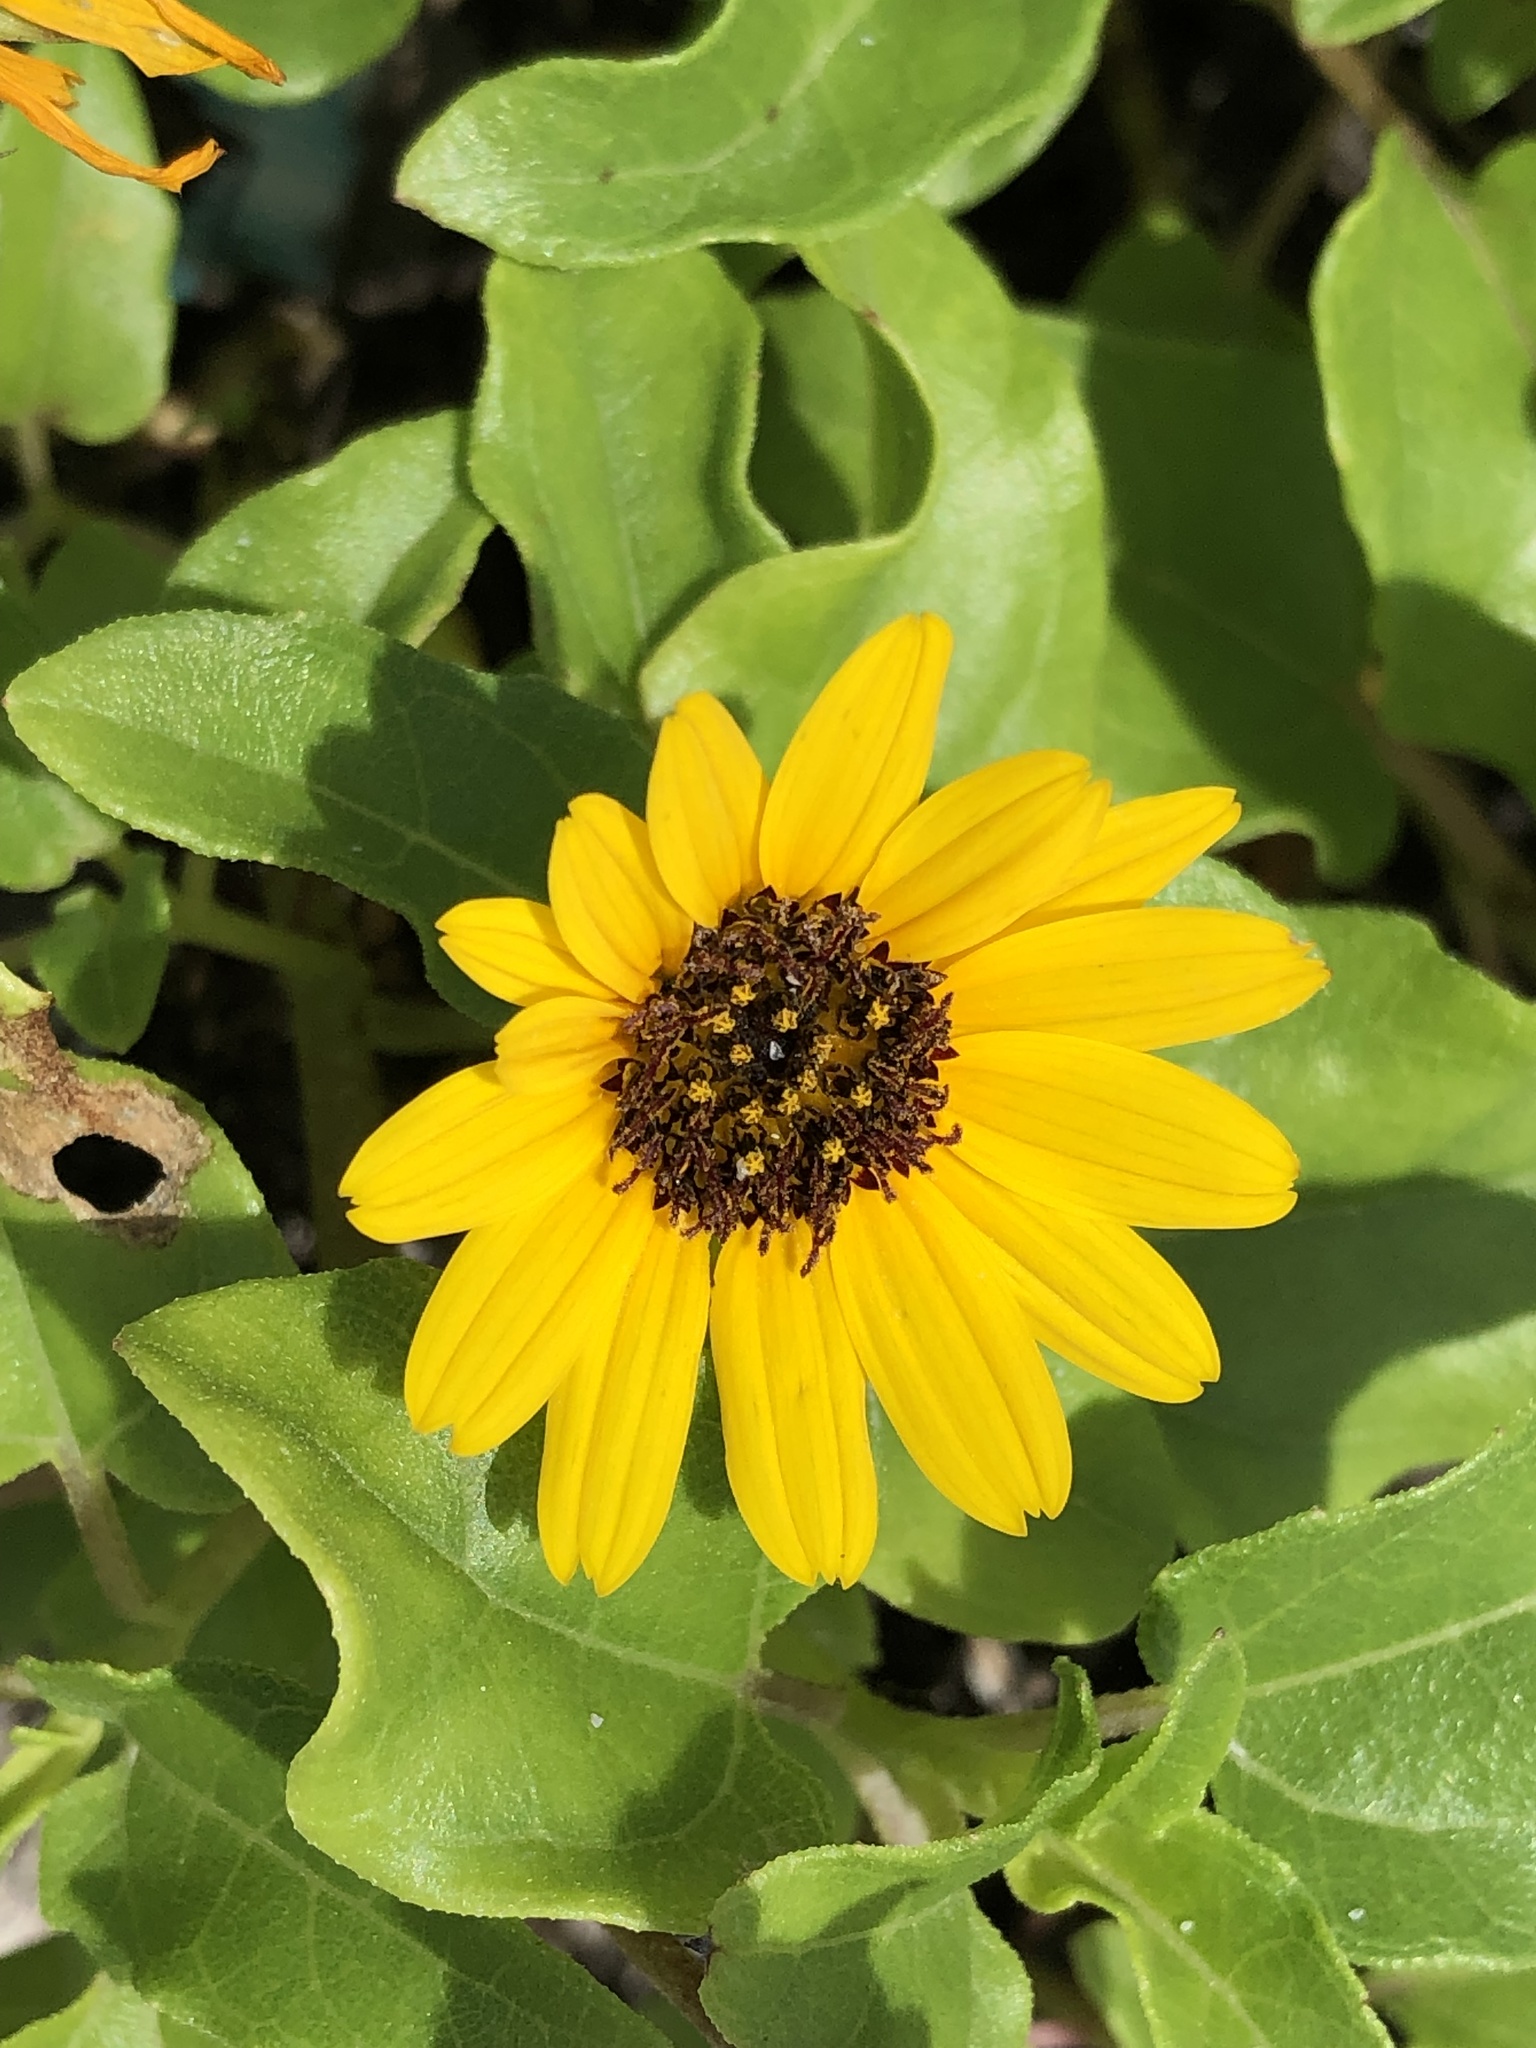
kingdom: Plantae
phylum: Tracheophyta
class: Magnoliopsida
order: Asterales
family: Asteraceae
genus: Helianthus
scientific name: Helianthus debilis
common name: Weak sunflower
